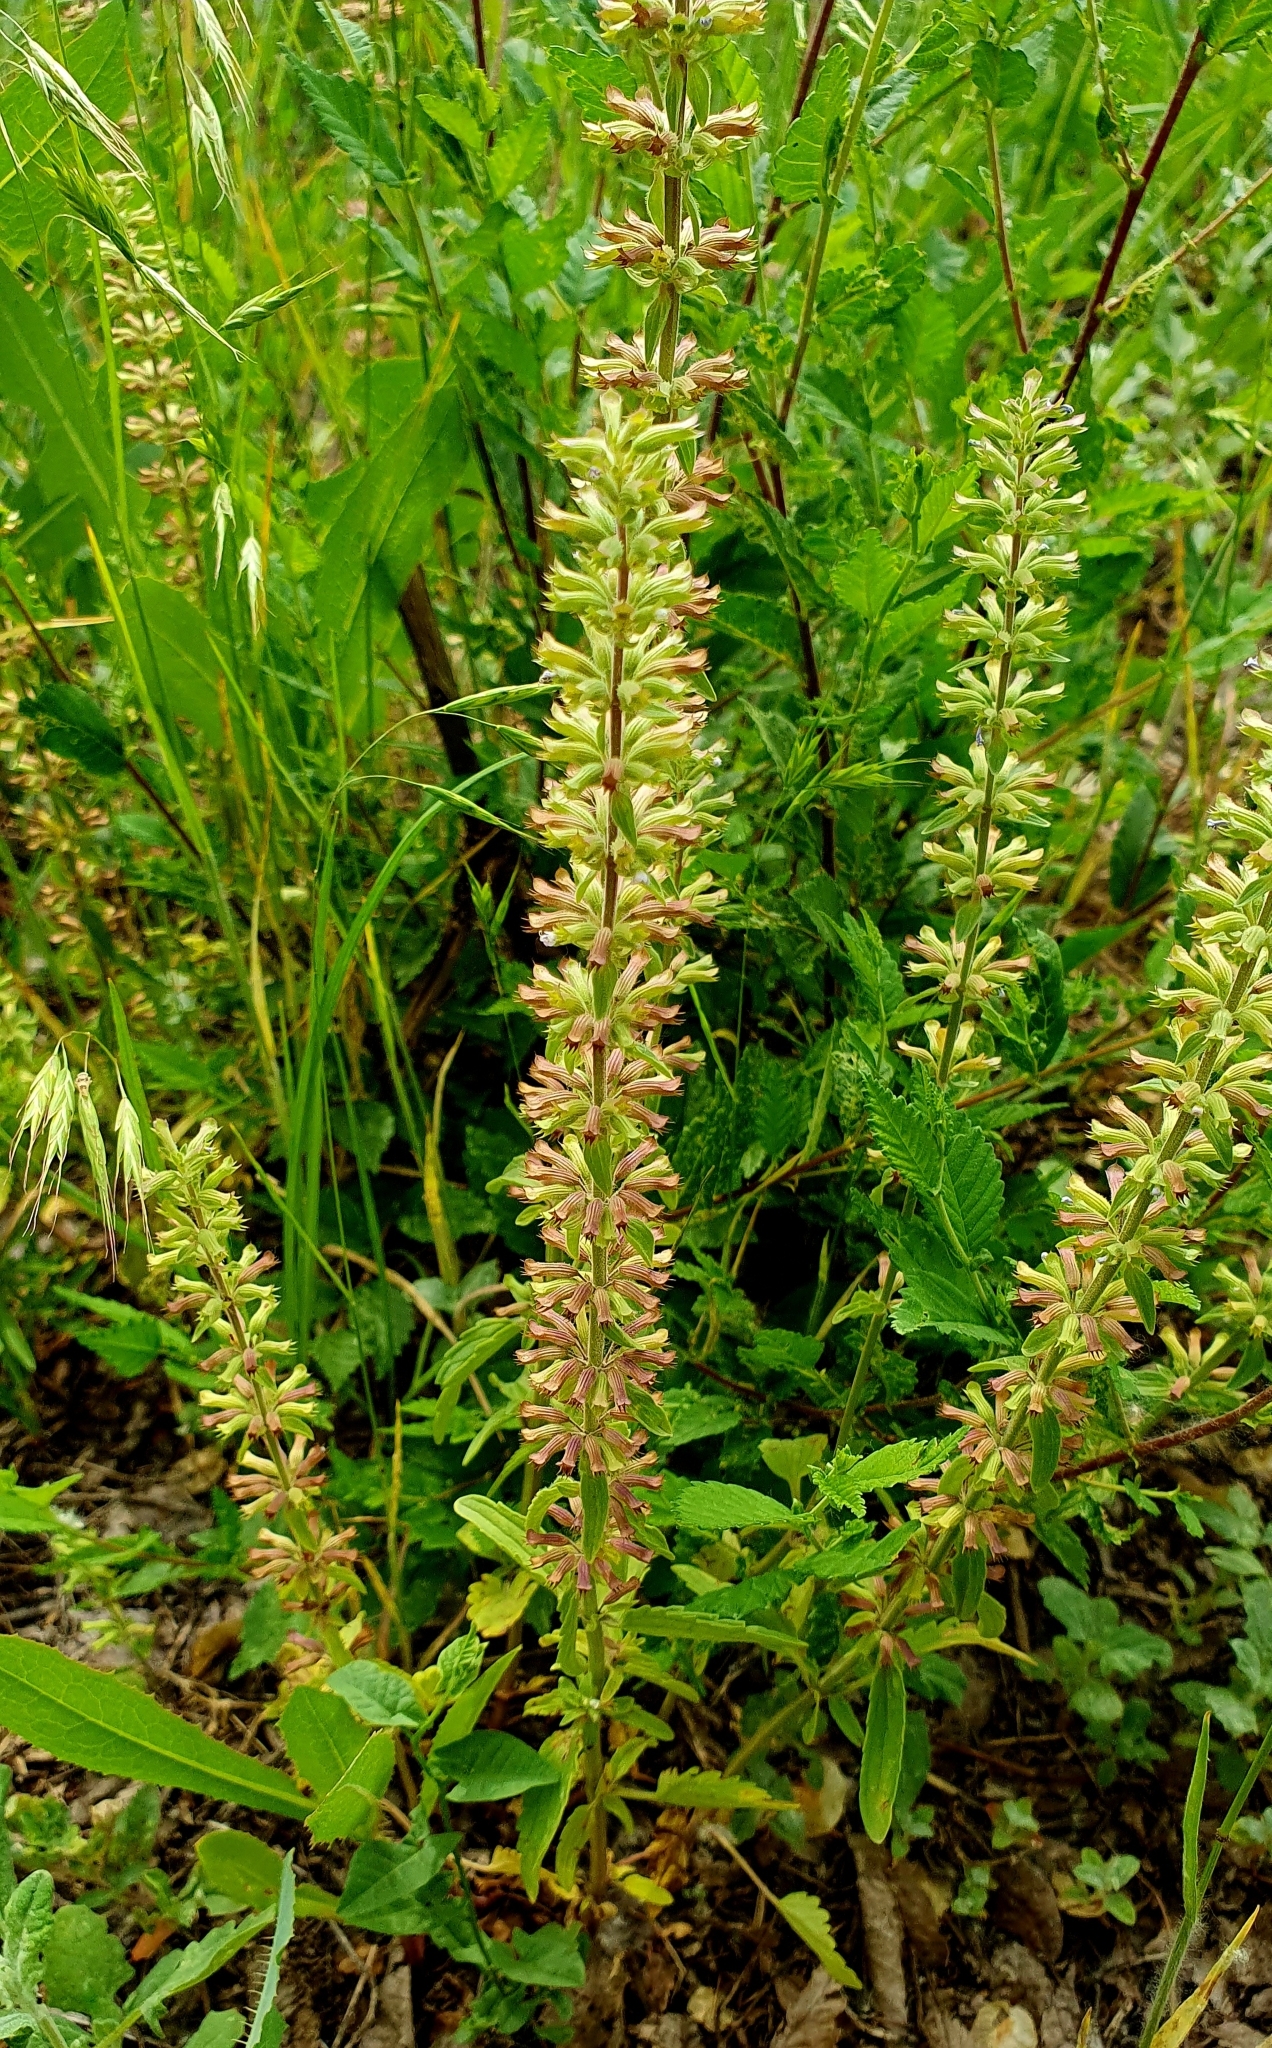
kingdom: Plantae
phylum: Tracheophyta
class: Magnoliopsida
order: Lamiales
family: Lamiaceae
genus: Dracocephalum
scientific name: Dracocephalum thymiflorum
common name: Thymeleaf dragonhead
